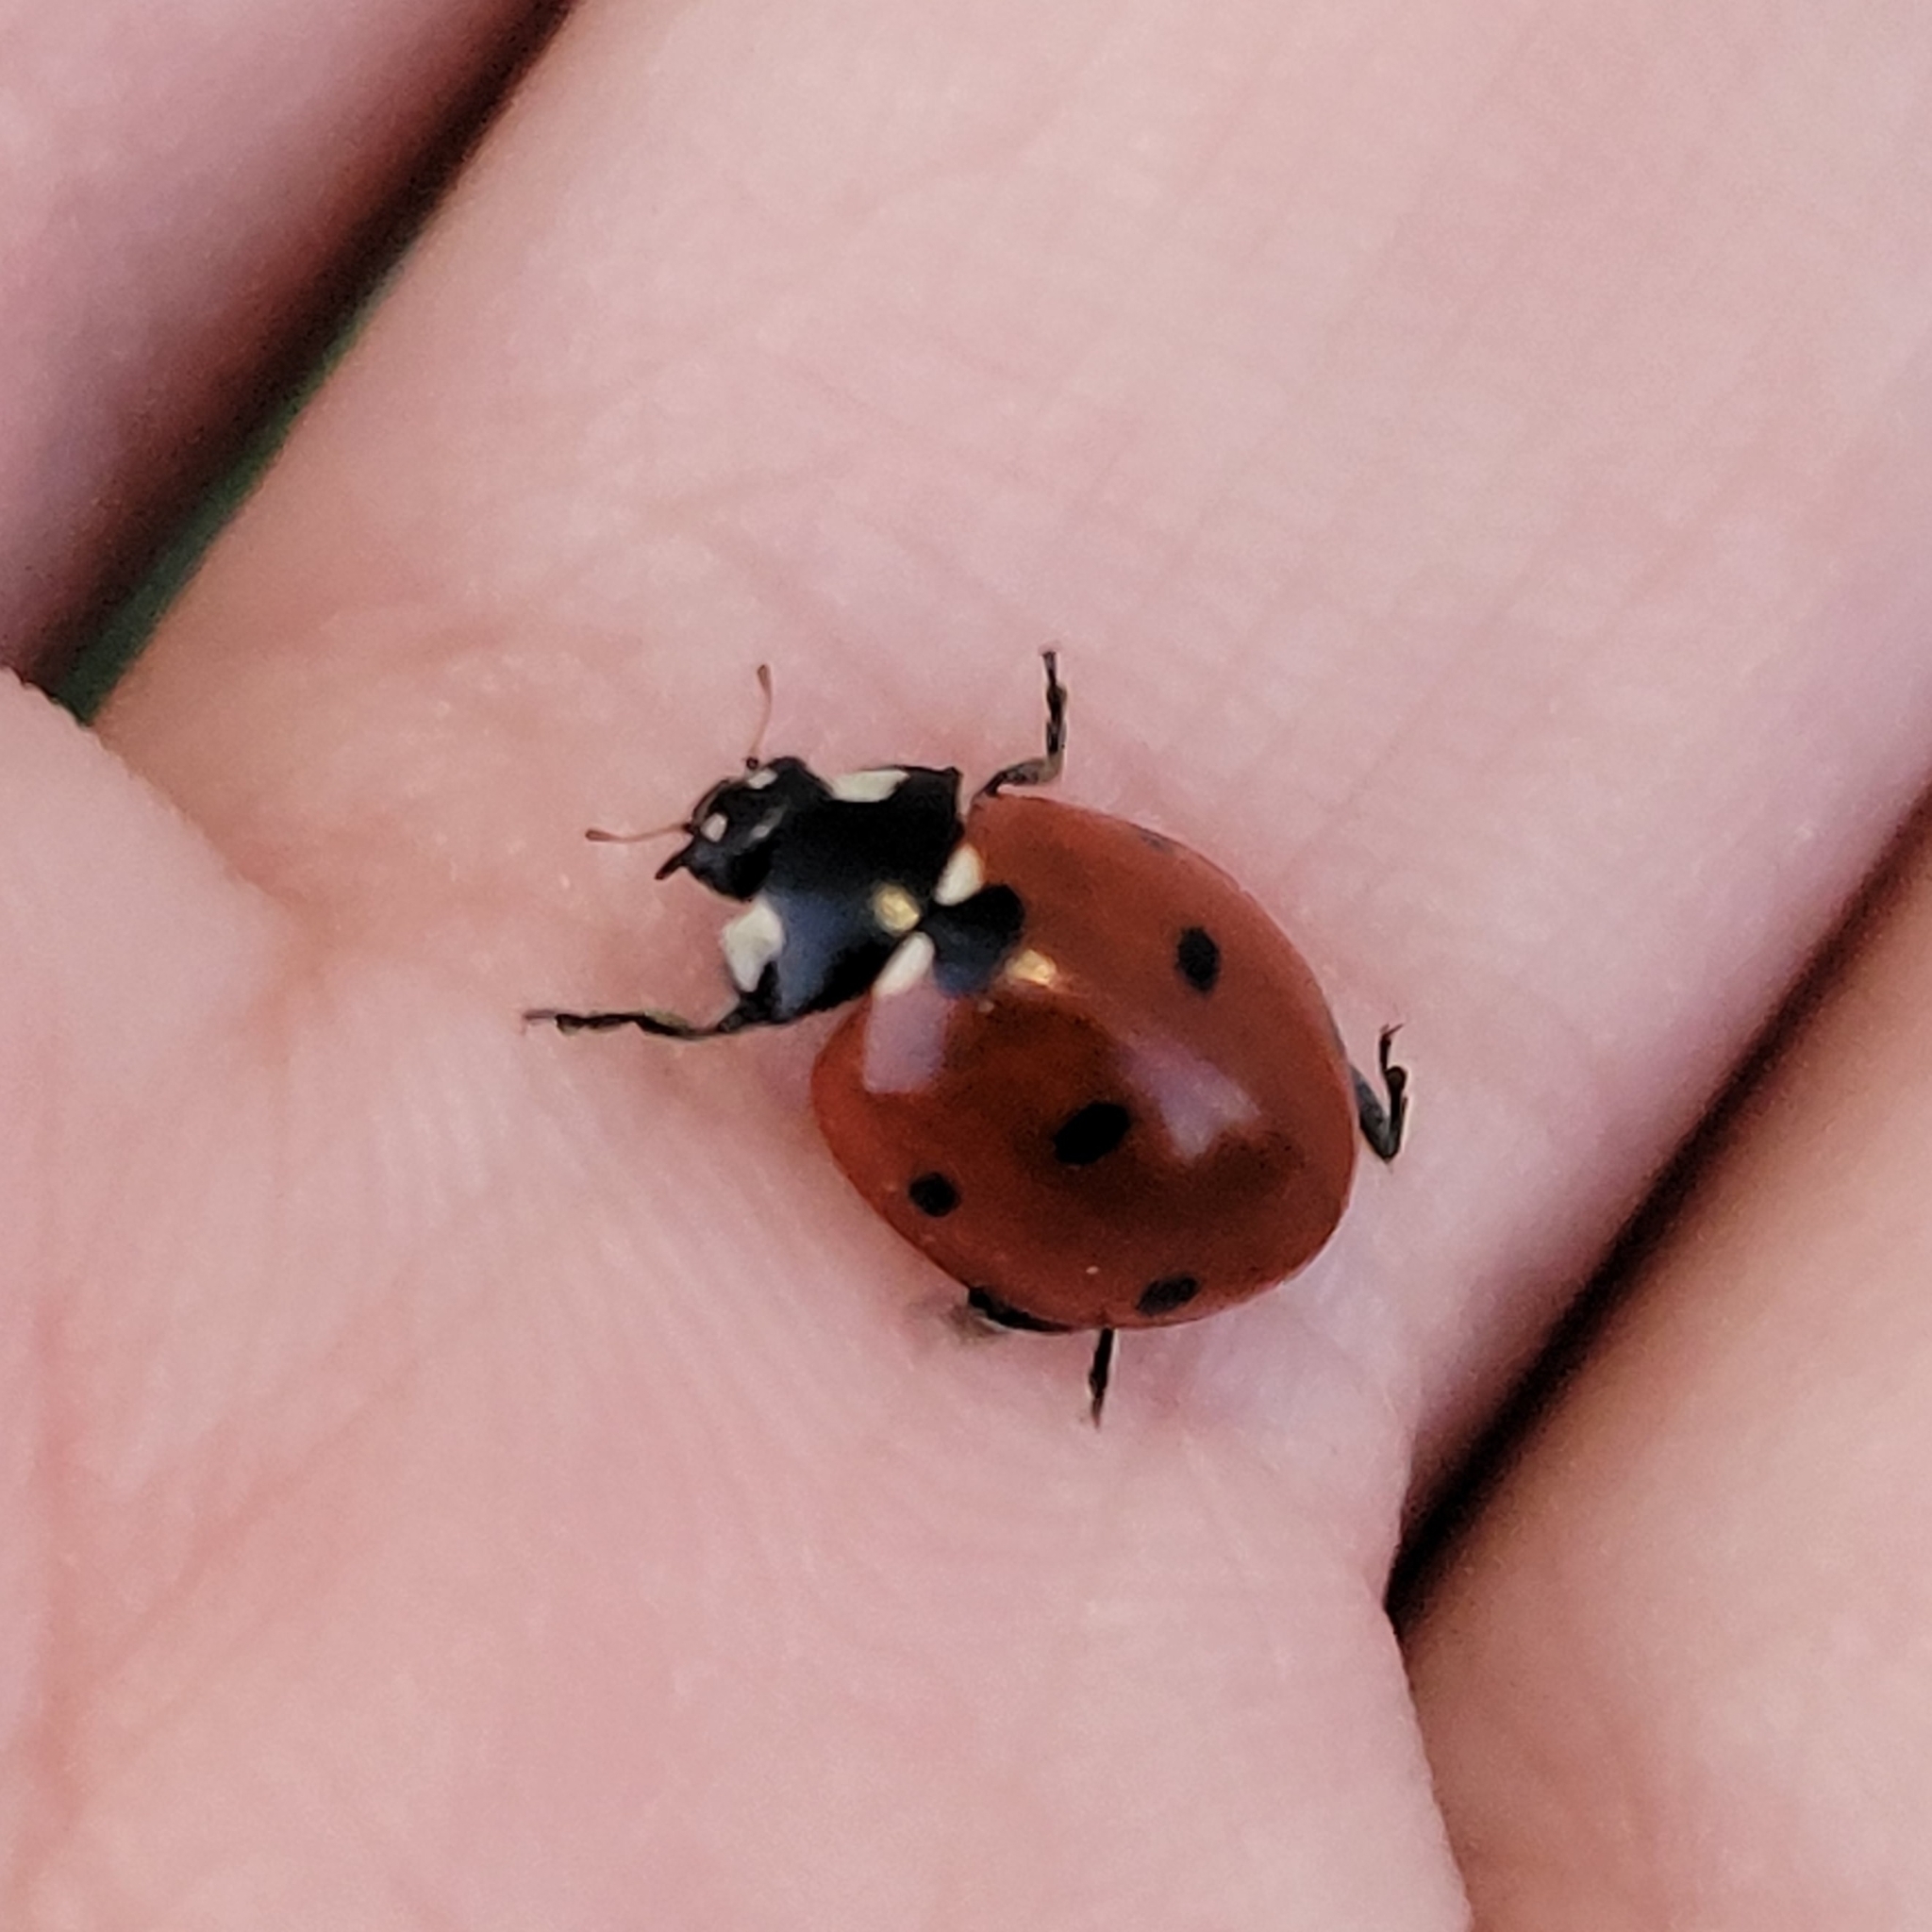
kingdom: Animalia
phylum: Arthropoda
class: Insecta
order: Coleoptera
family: Coccinellidae
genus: Coccinella
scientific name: Coccinella septempunctata
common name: Sevenspotted lady beetle
